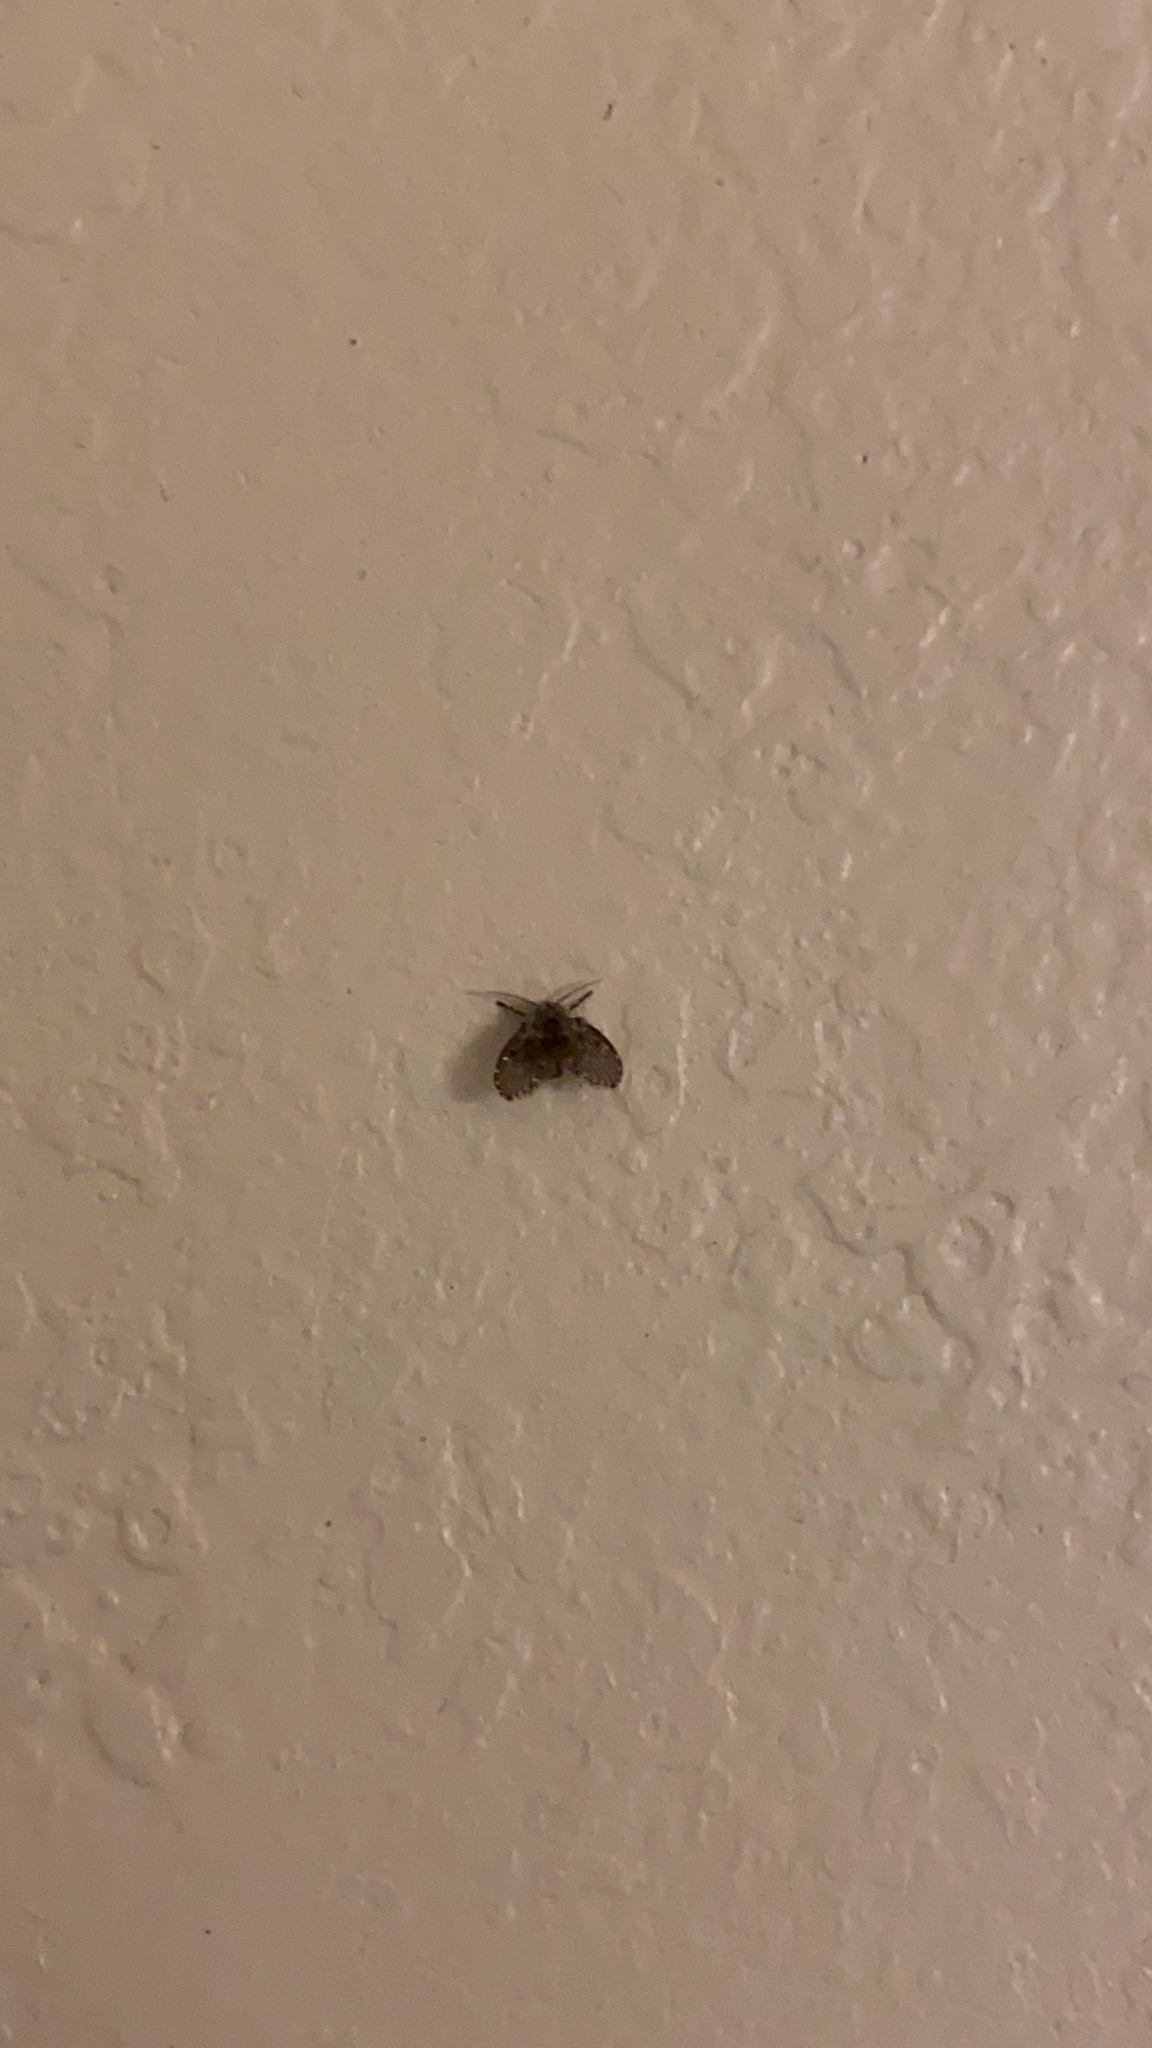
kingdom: Animalia
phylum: Arthropoda
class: Insecta
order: Diptera
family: Psychodidae
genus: Clogmia
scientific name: Clogmia albipunctatus
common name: White-spotted moth fly
